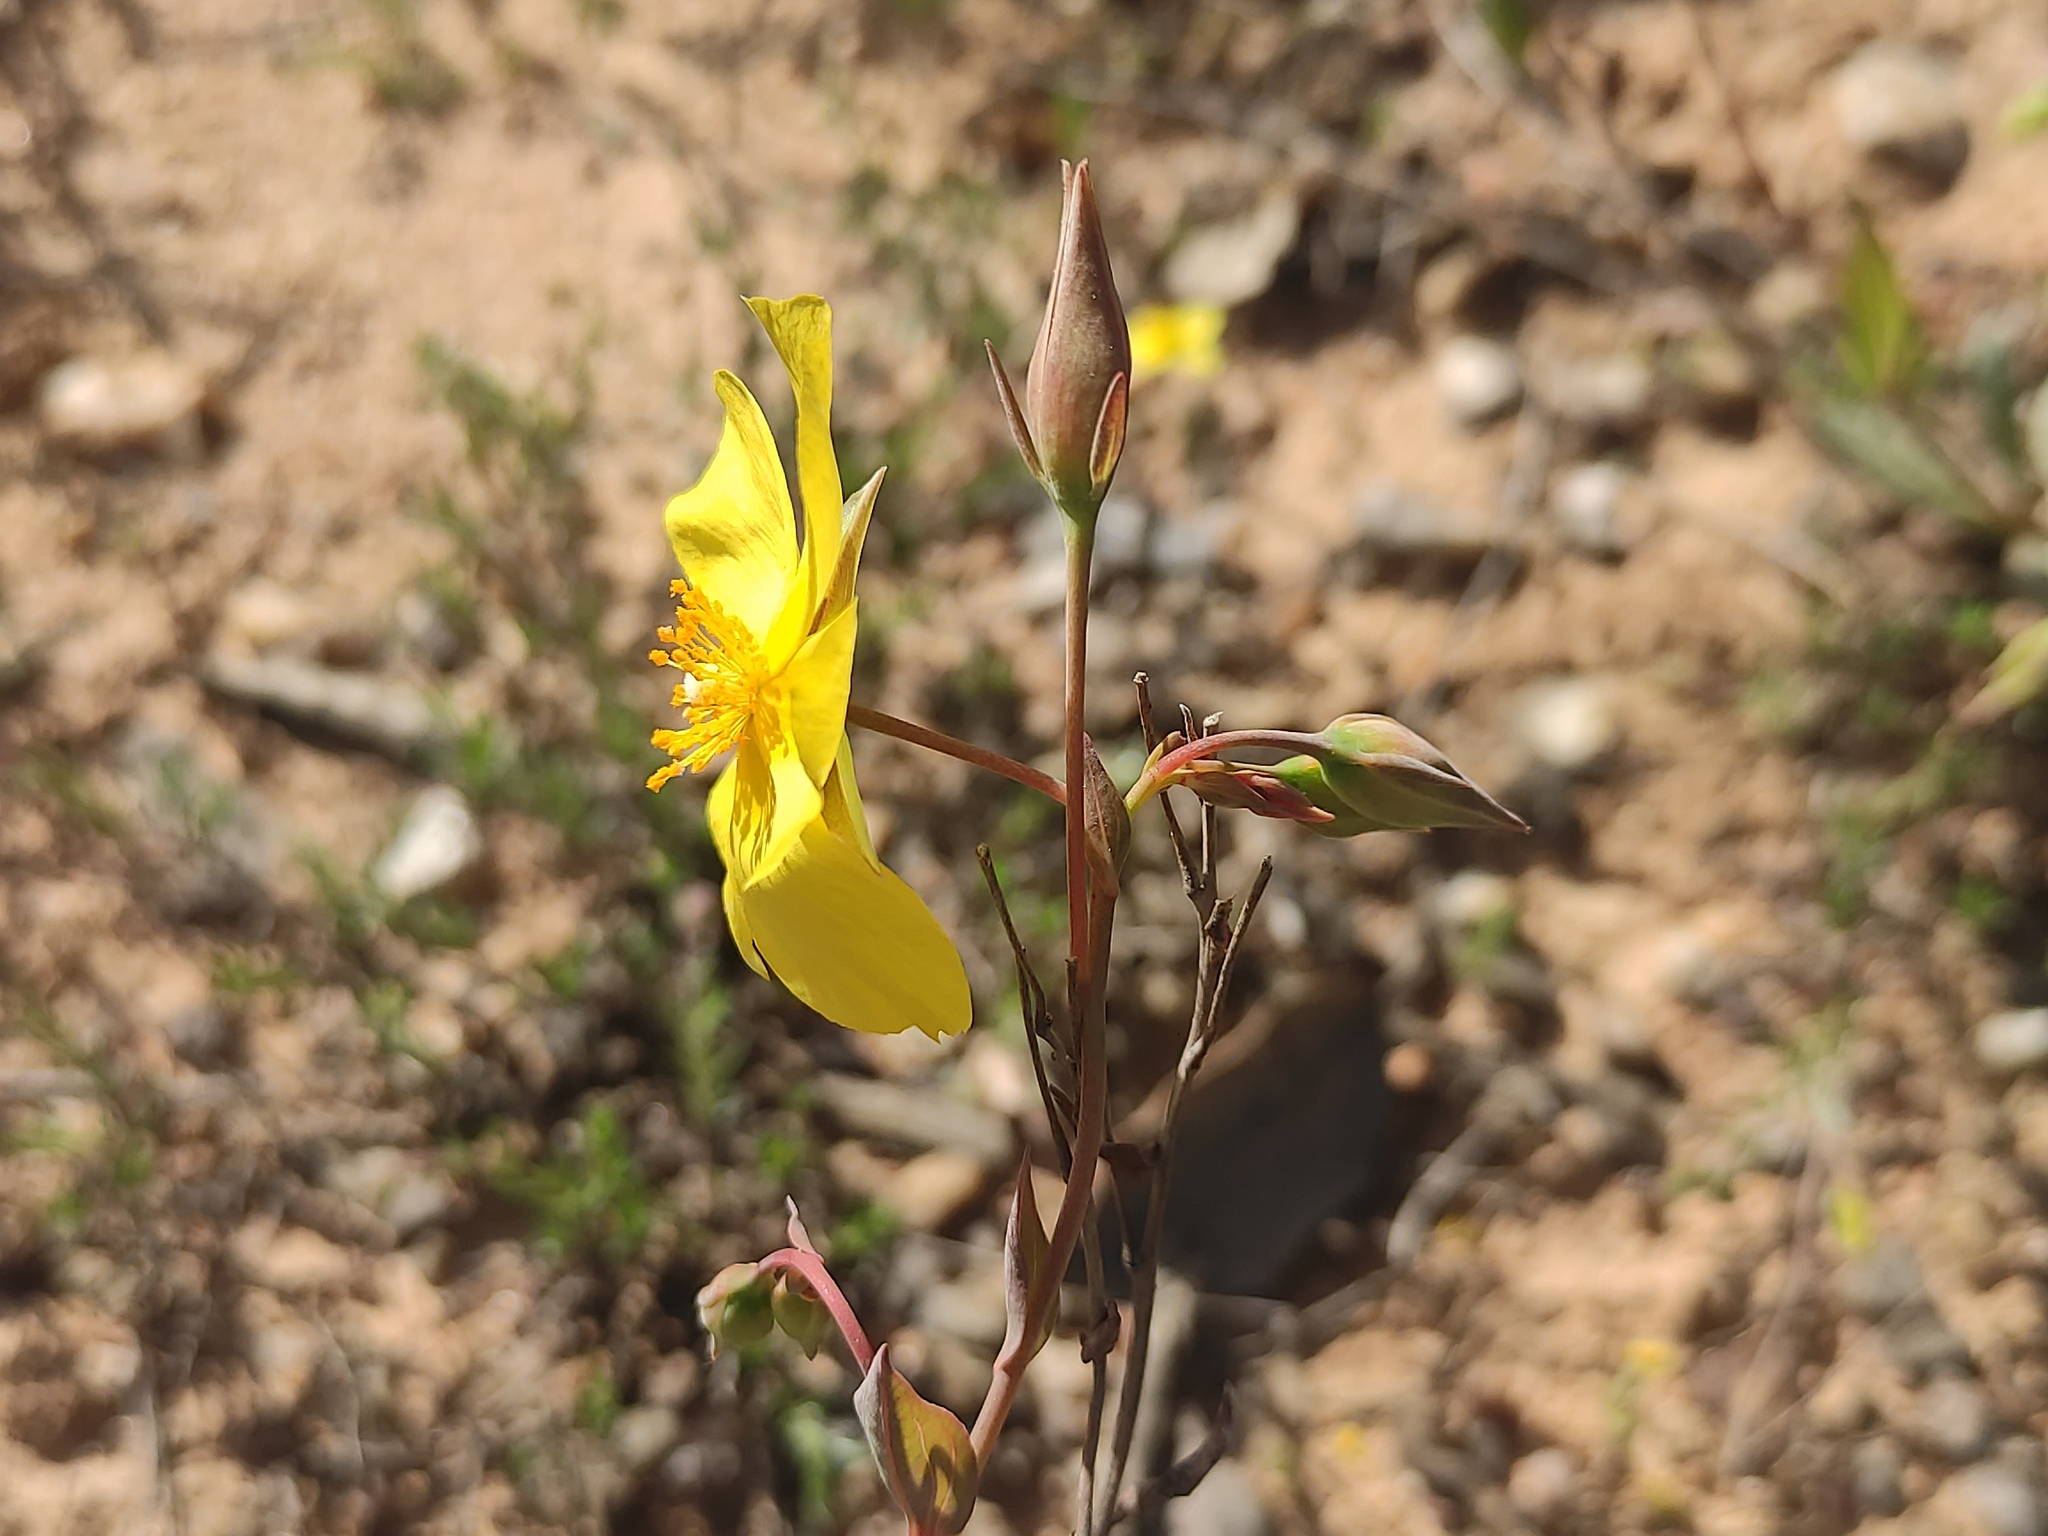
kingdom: Plantae
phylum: Tracheophyta
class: Magnoliopsida
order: Malvales
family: Cistaceae
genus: Tuberaria
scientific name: Tuberaria lignosa
